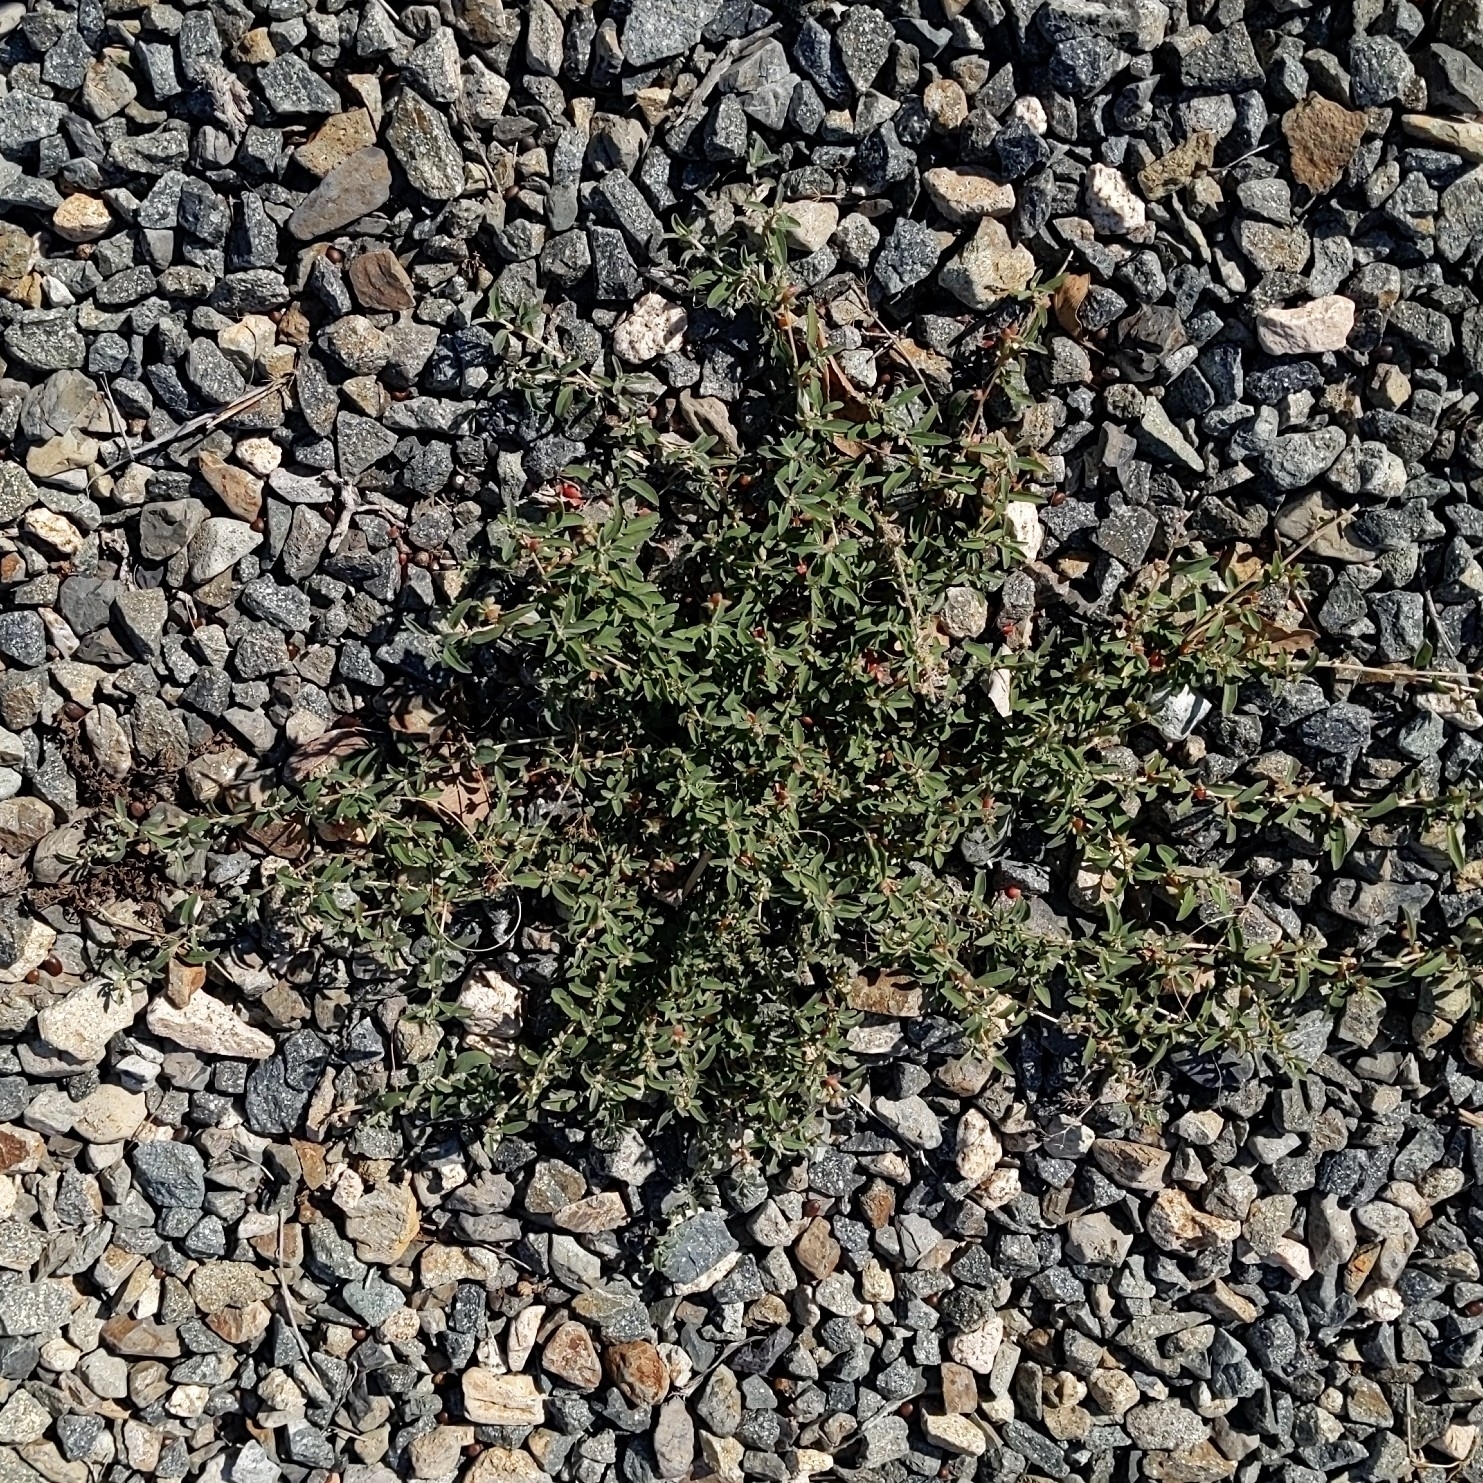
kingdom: Plantae
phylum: Tracheophyta
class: Magnoliopsida
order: Caryophyllales
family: Amaranthaceae
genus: Atriplex
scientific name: Atriplex semibaccata
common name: Australian saltbush
